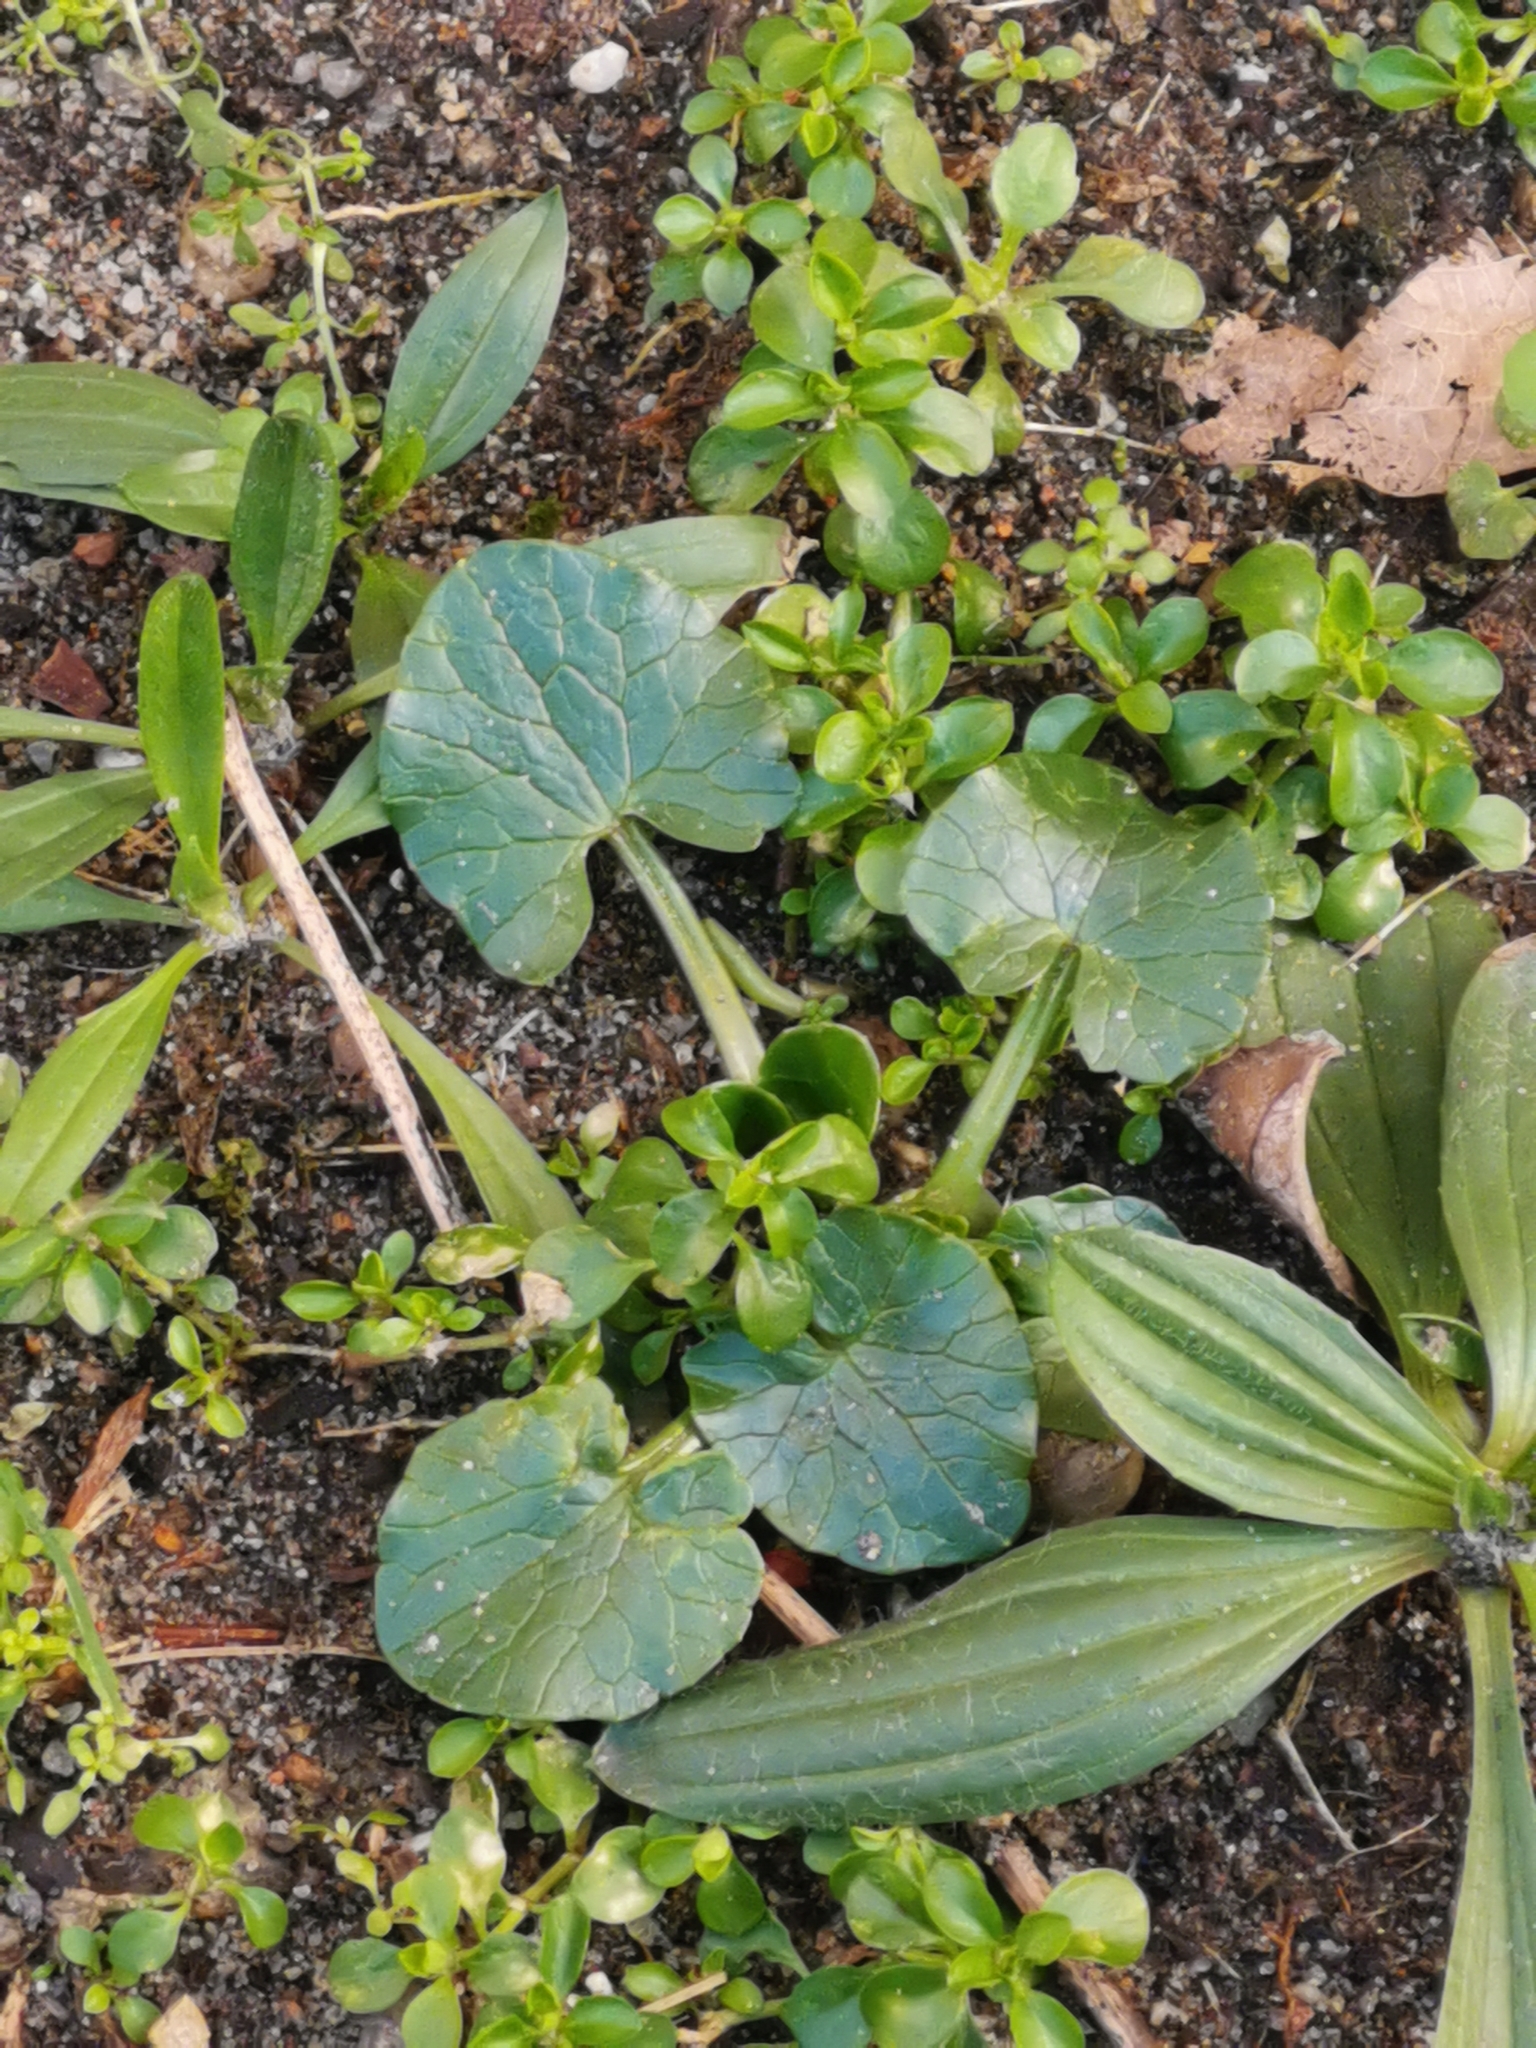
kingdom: Plantae
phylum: Tracheophyta
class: Magnoliopsida
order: Ranunculales
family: Ranunculaceae
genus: Ficaria
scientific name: Ficaria verna
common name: Lesser celandine
